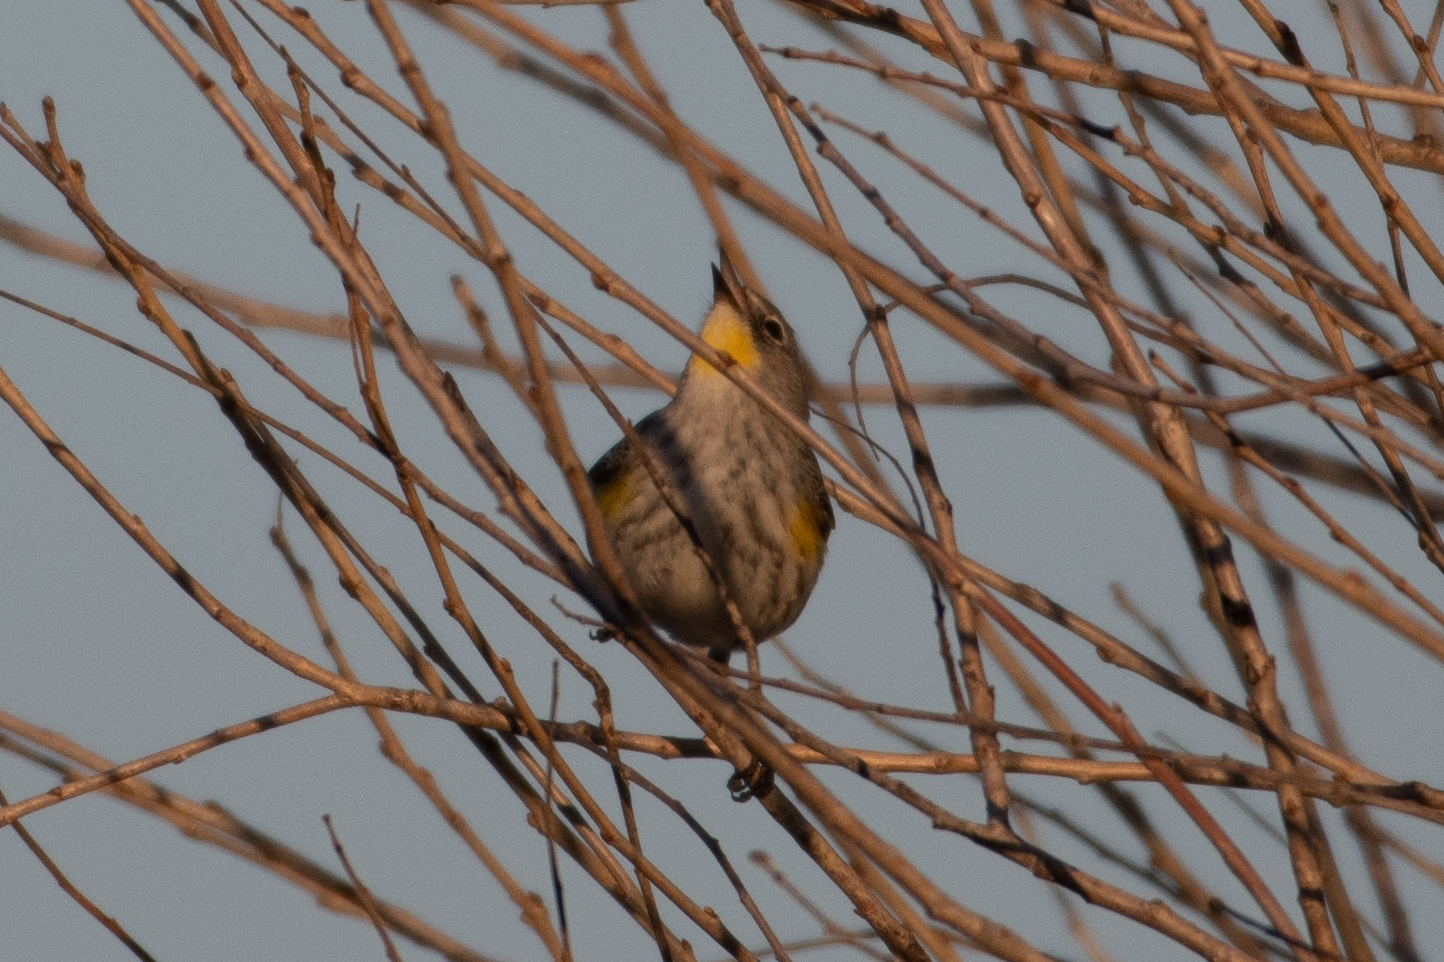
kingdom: Animalia
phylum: Chordata
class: Aves
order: Passeriformes
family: Parulidae
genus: Setophaga
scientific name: Setophaga coronata
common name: Myrtle warbler
